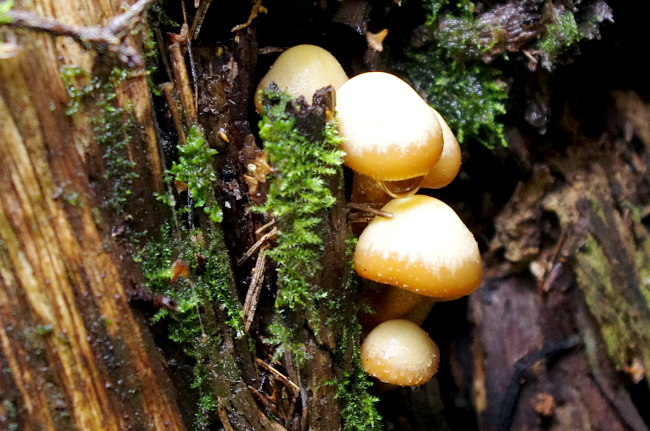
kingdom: Fungi
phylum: Basidiomycota
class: Agaricomycetes
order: Agaricales
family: Strophariaceae
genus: Kuehneromyces
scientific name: Kuehneromyces mutabilis
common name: Sheathed woodtuft
